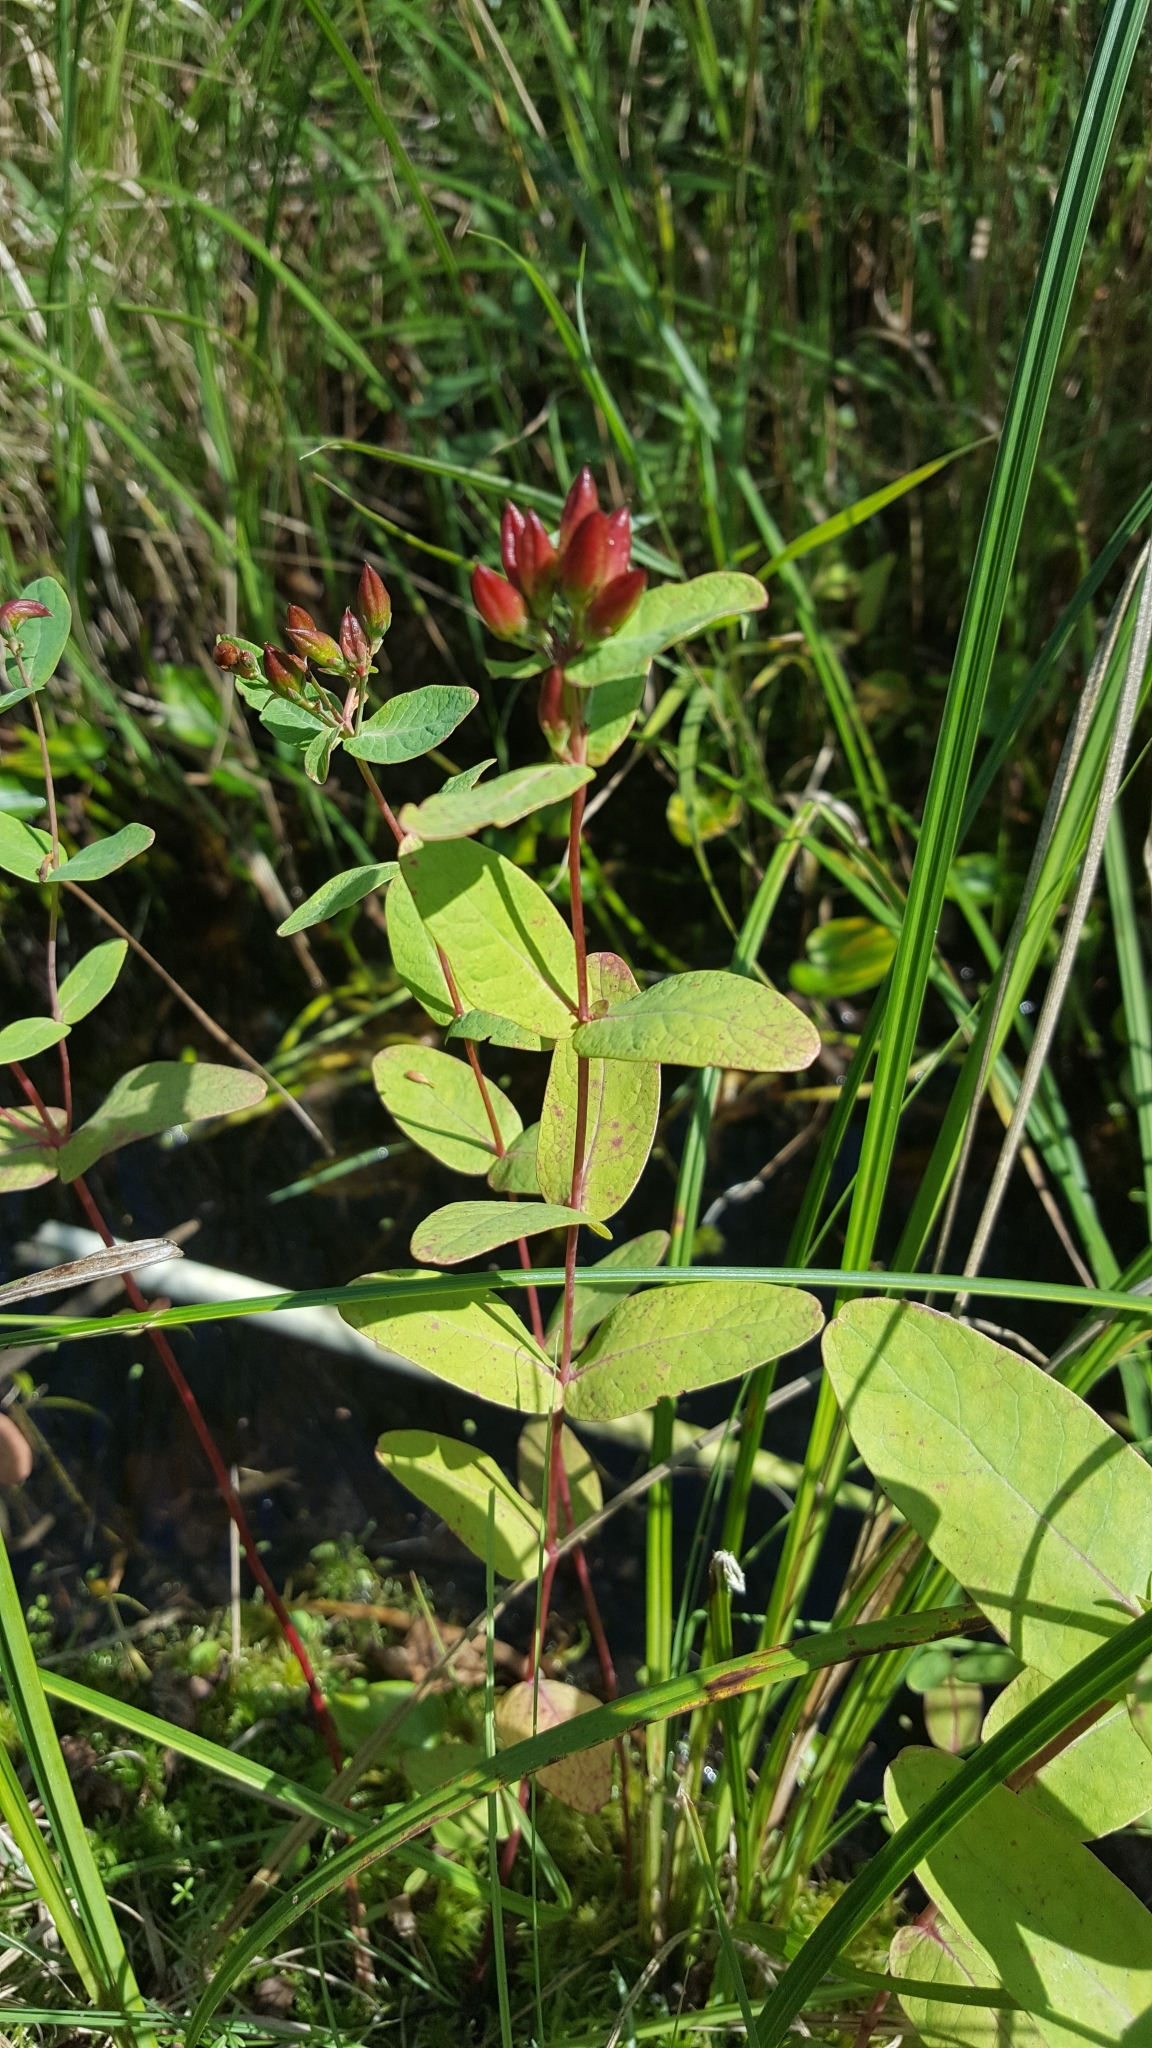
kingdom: Plantae
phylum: Tracheophyta
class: Magnoliopsida
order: Malpighiales
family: Hypericaceae
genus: Triadenum
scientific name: Triadenum fraseri
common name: Fraser's marsh st. johnswort
